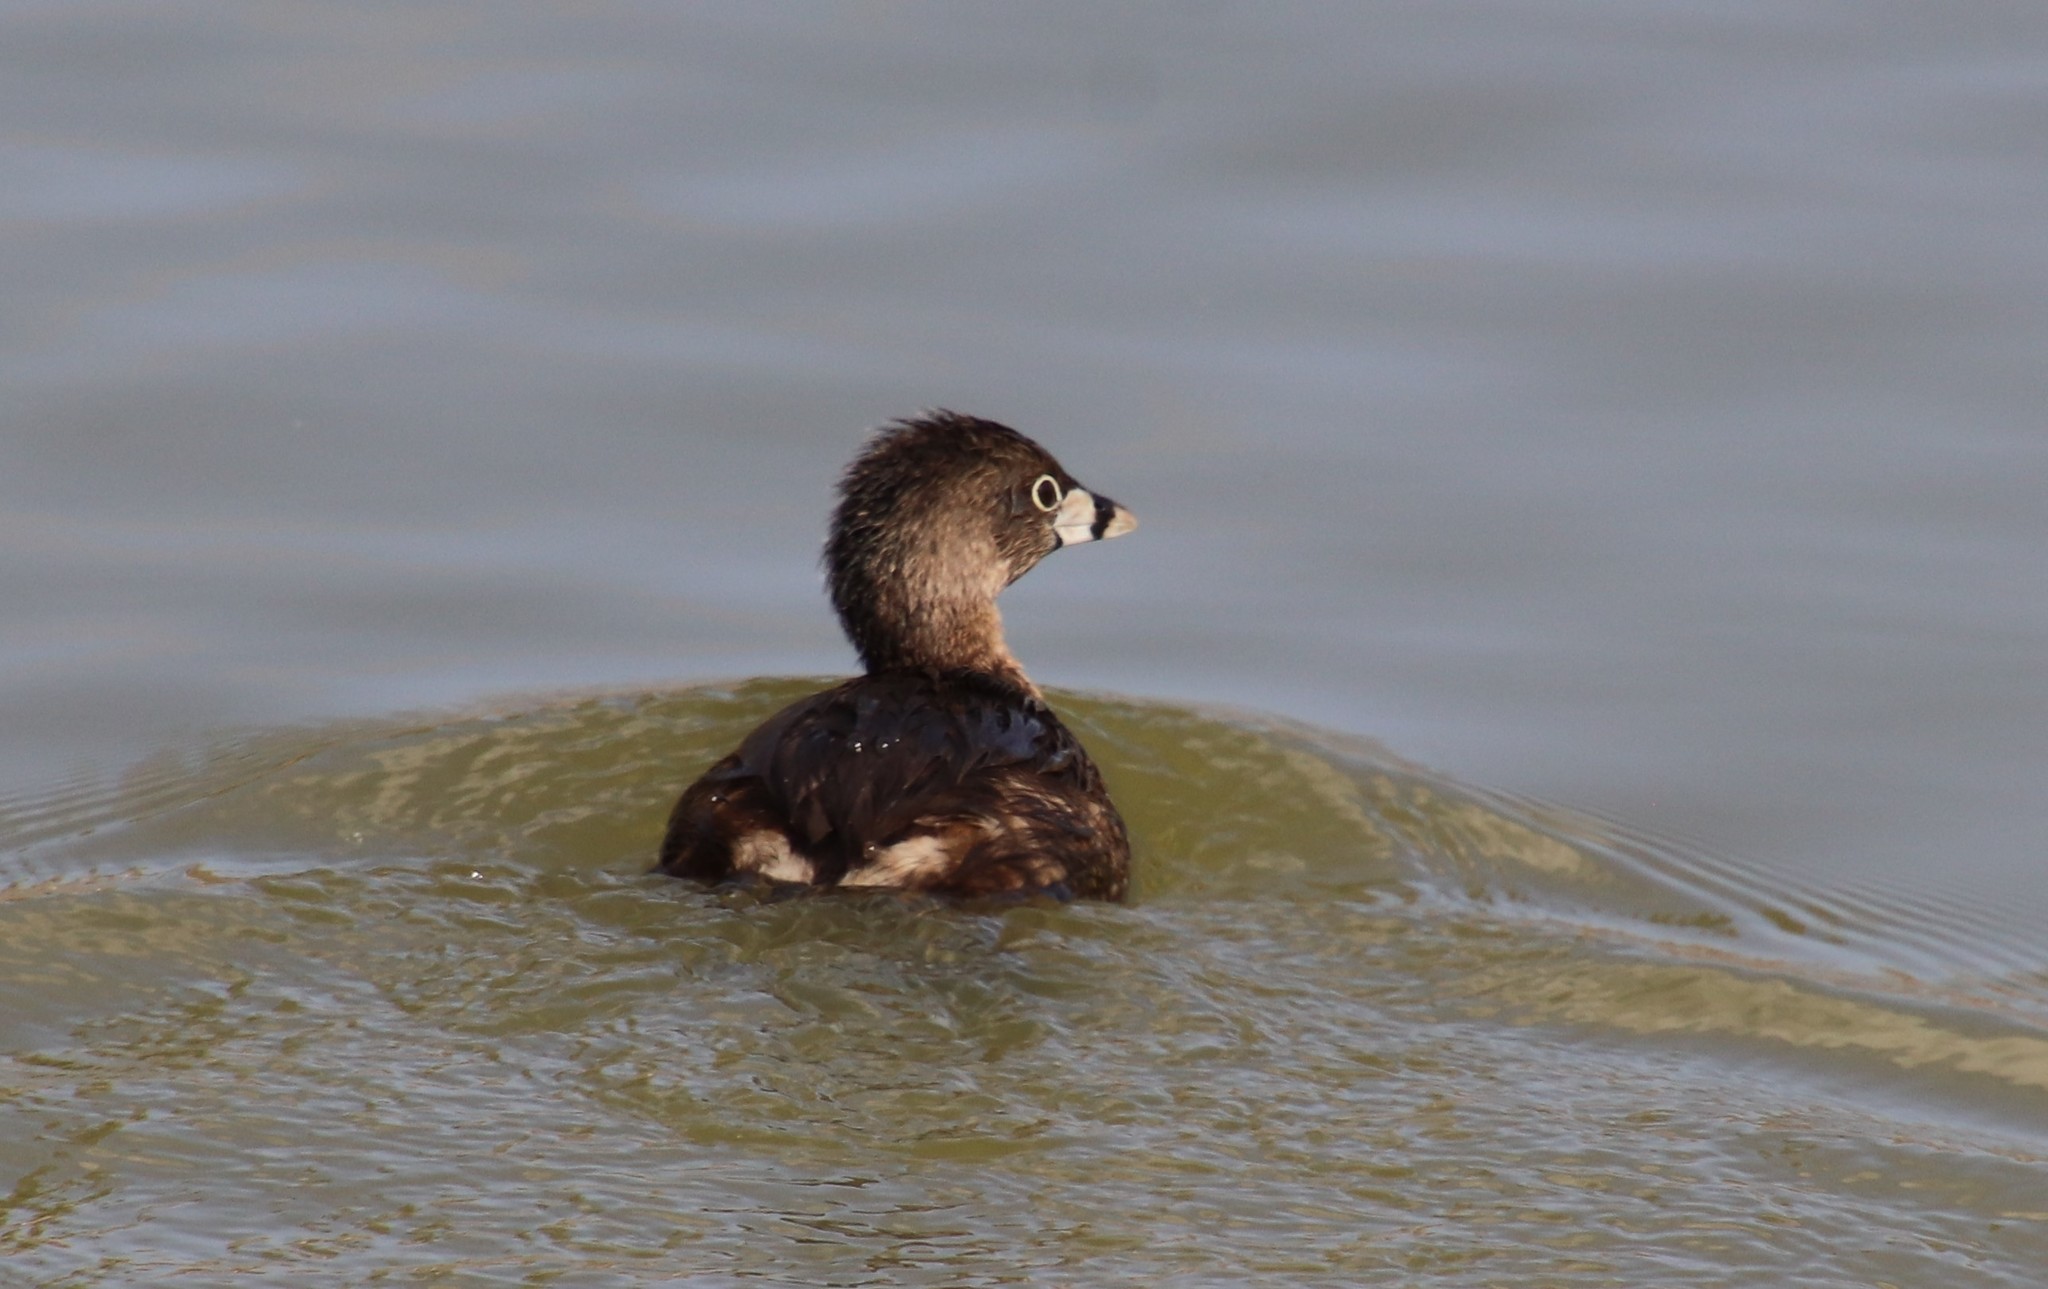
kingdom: Animalia
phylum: Chordata
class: Aves
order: Podicipediformes
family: Podicipedidae
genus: Podilymbus
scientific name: Podilymbus podiceps
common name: Pied-billed grebe
